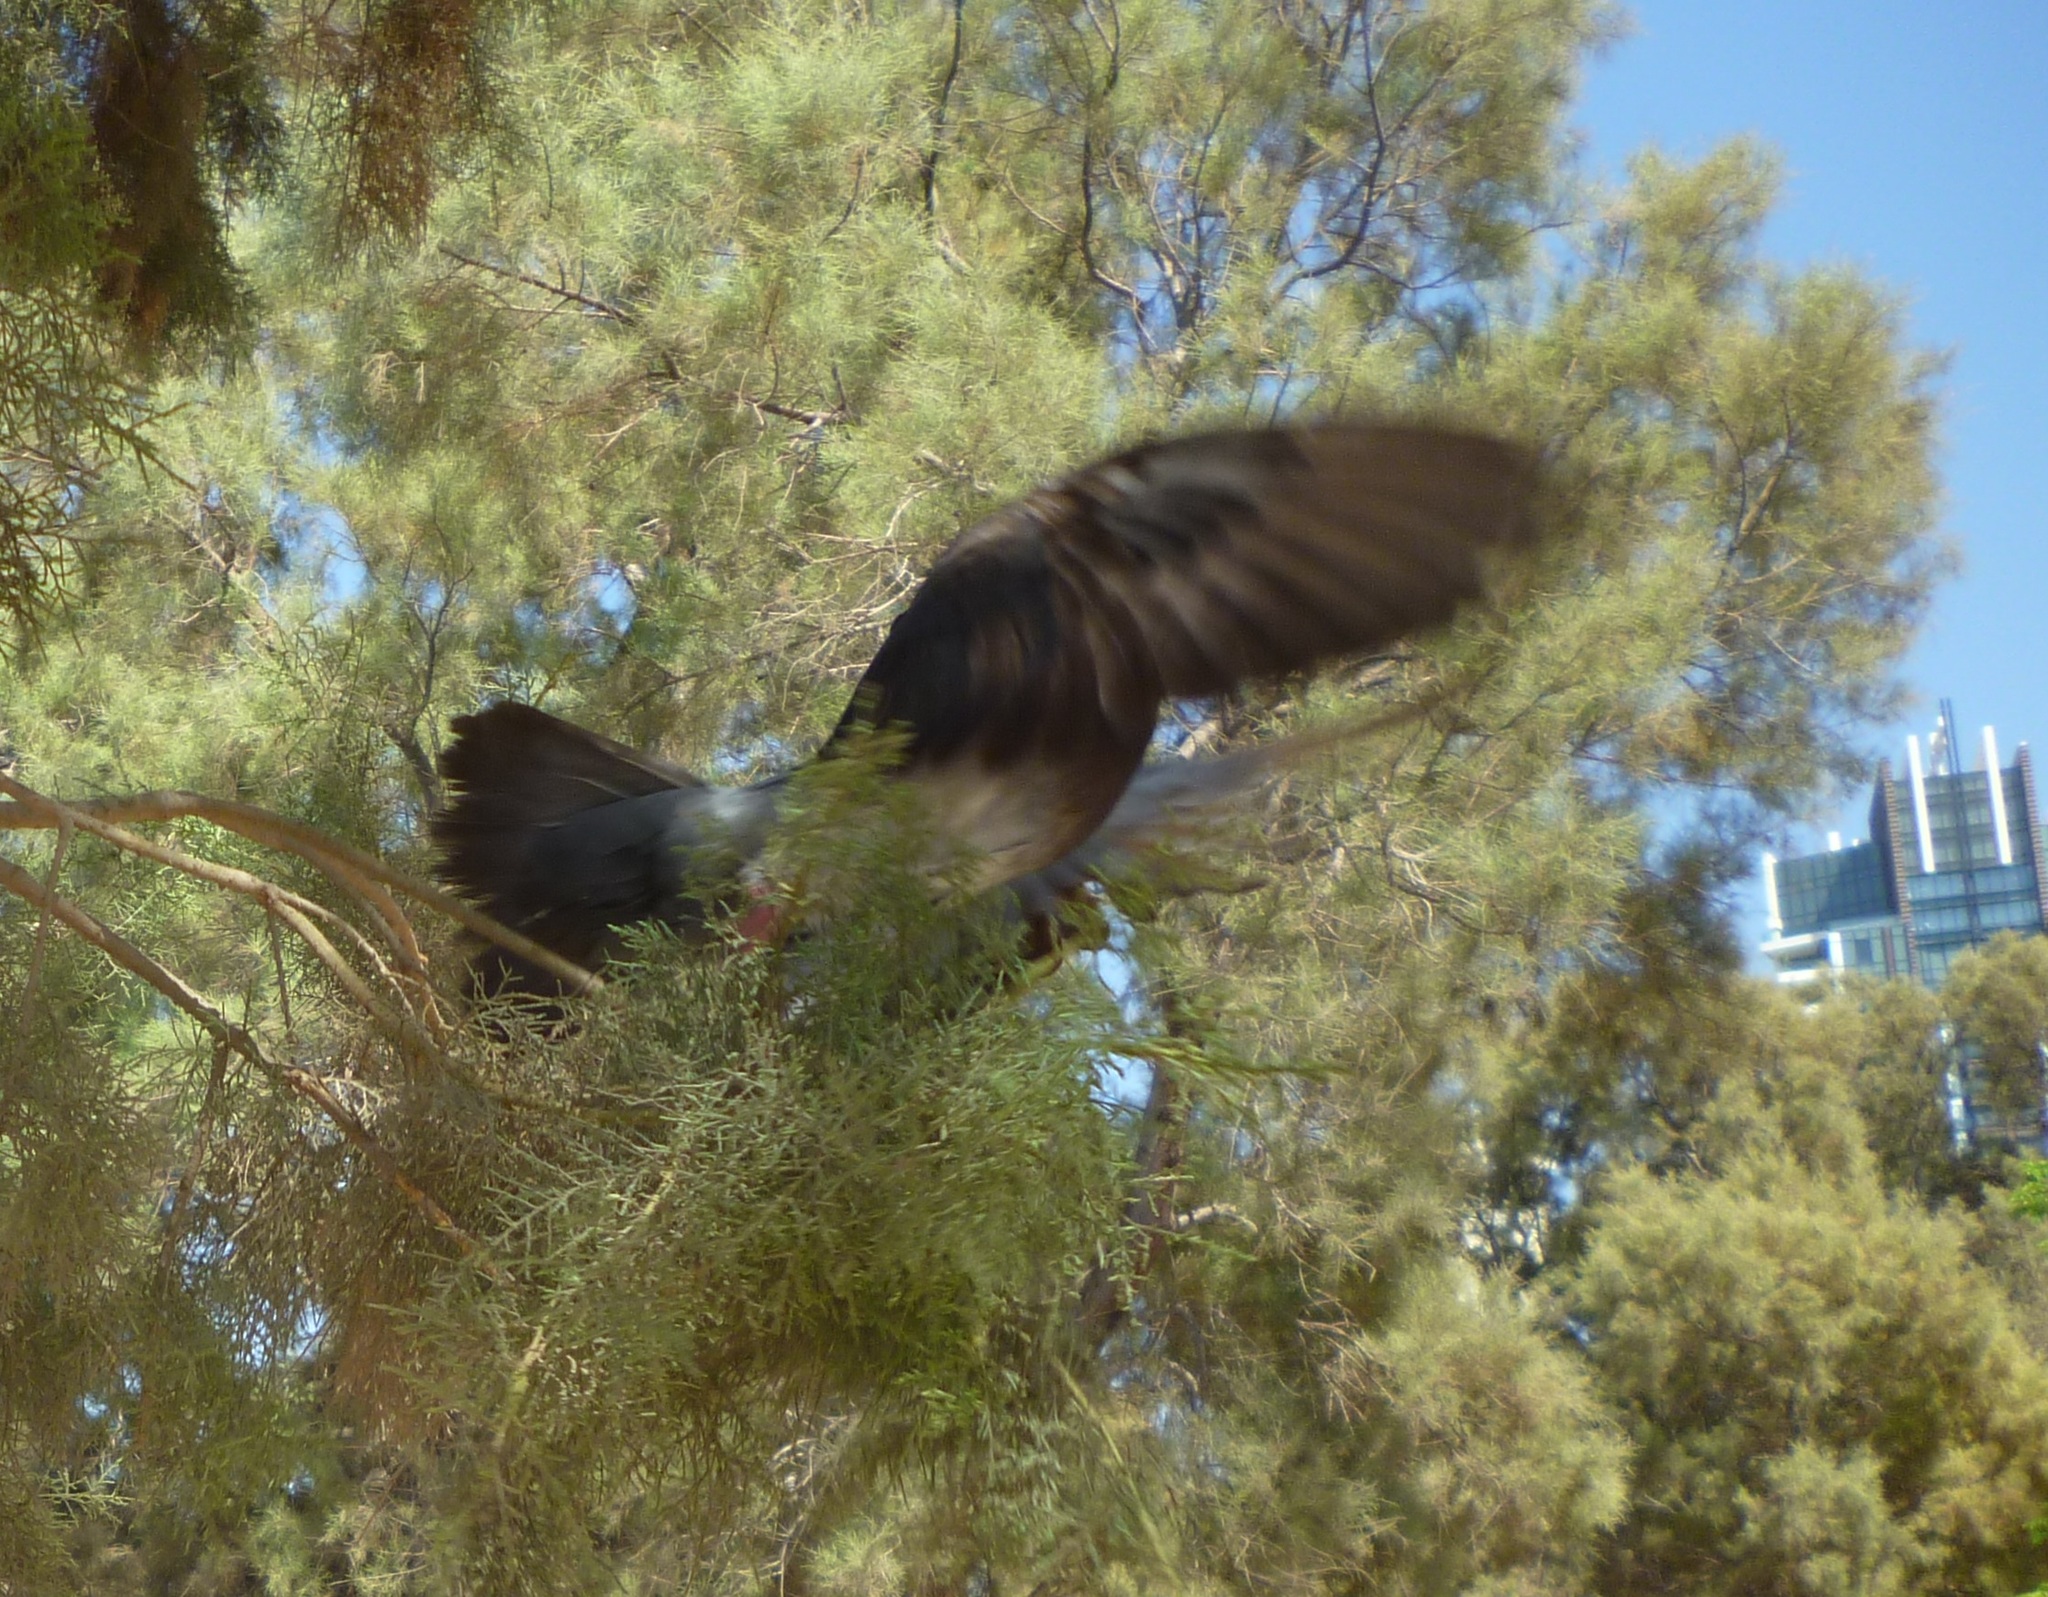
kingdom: Animalia
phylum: Chordata
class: Aves
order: Passeriformes
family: Corvidae
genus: Corvus
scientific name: Corvus cornix
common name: Hooded crow
